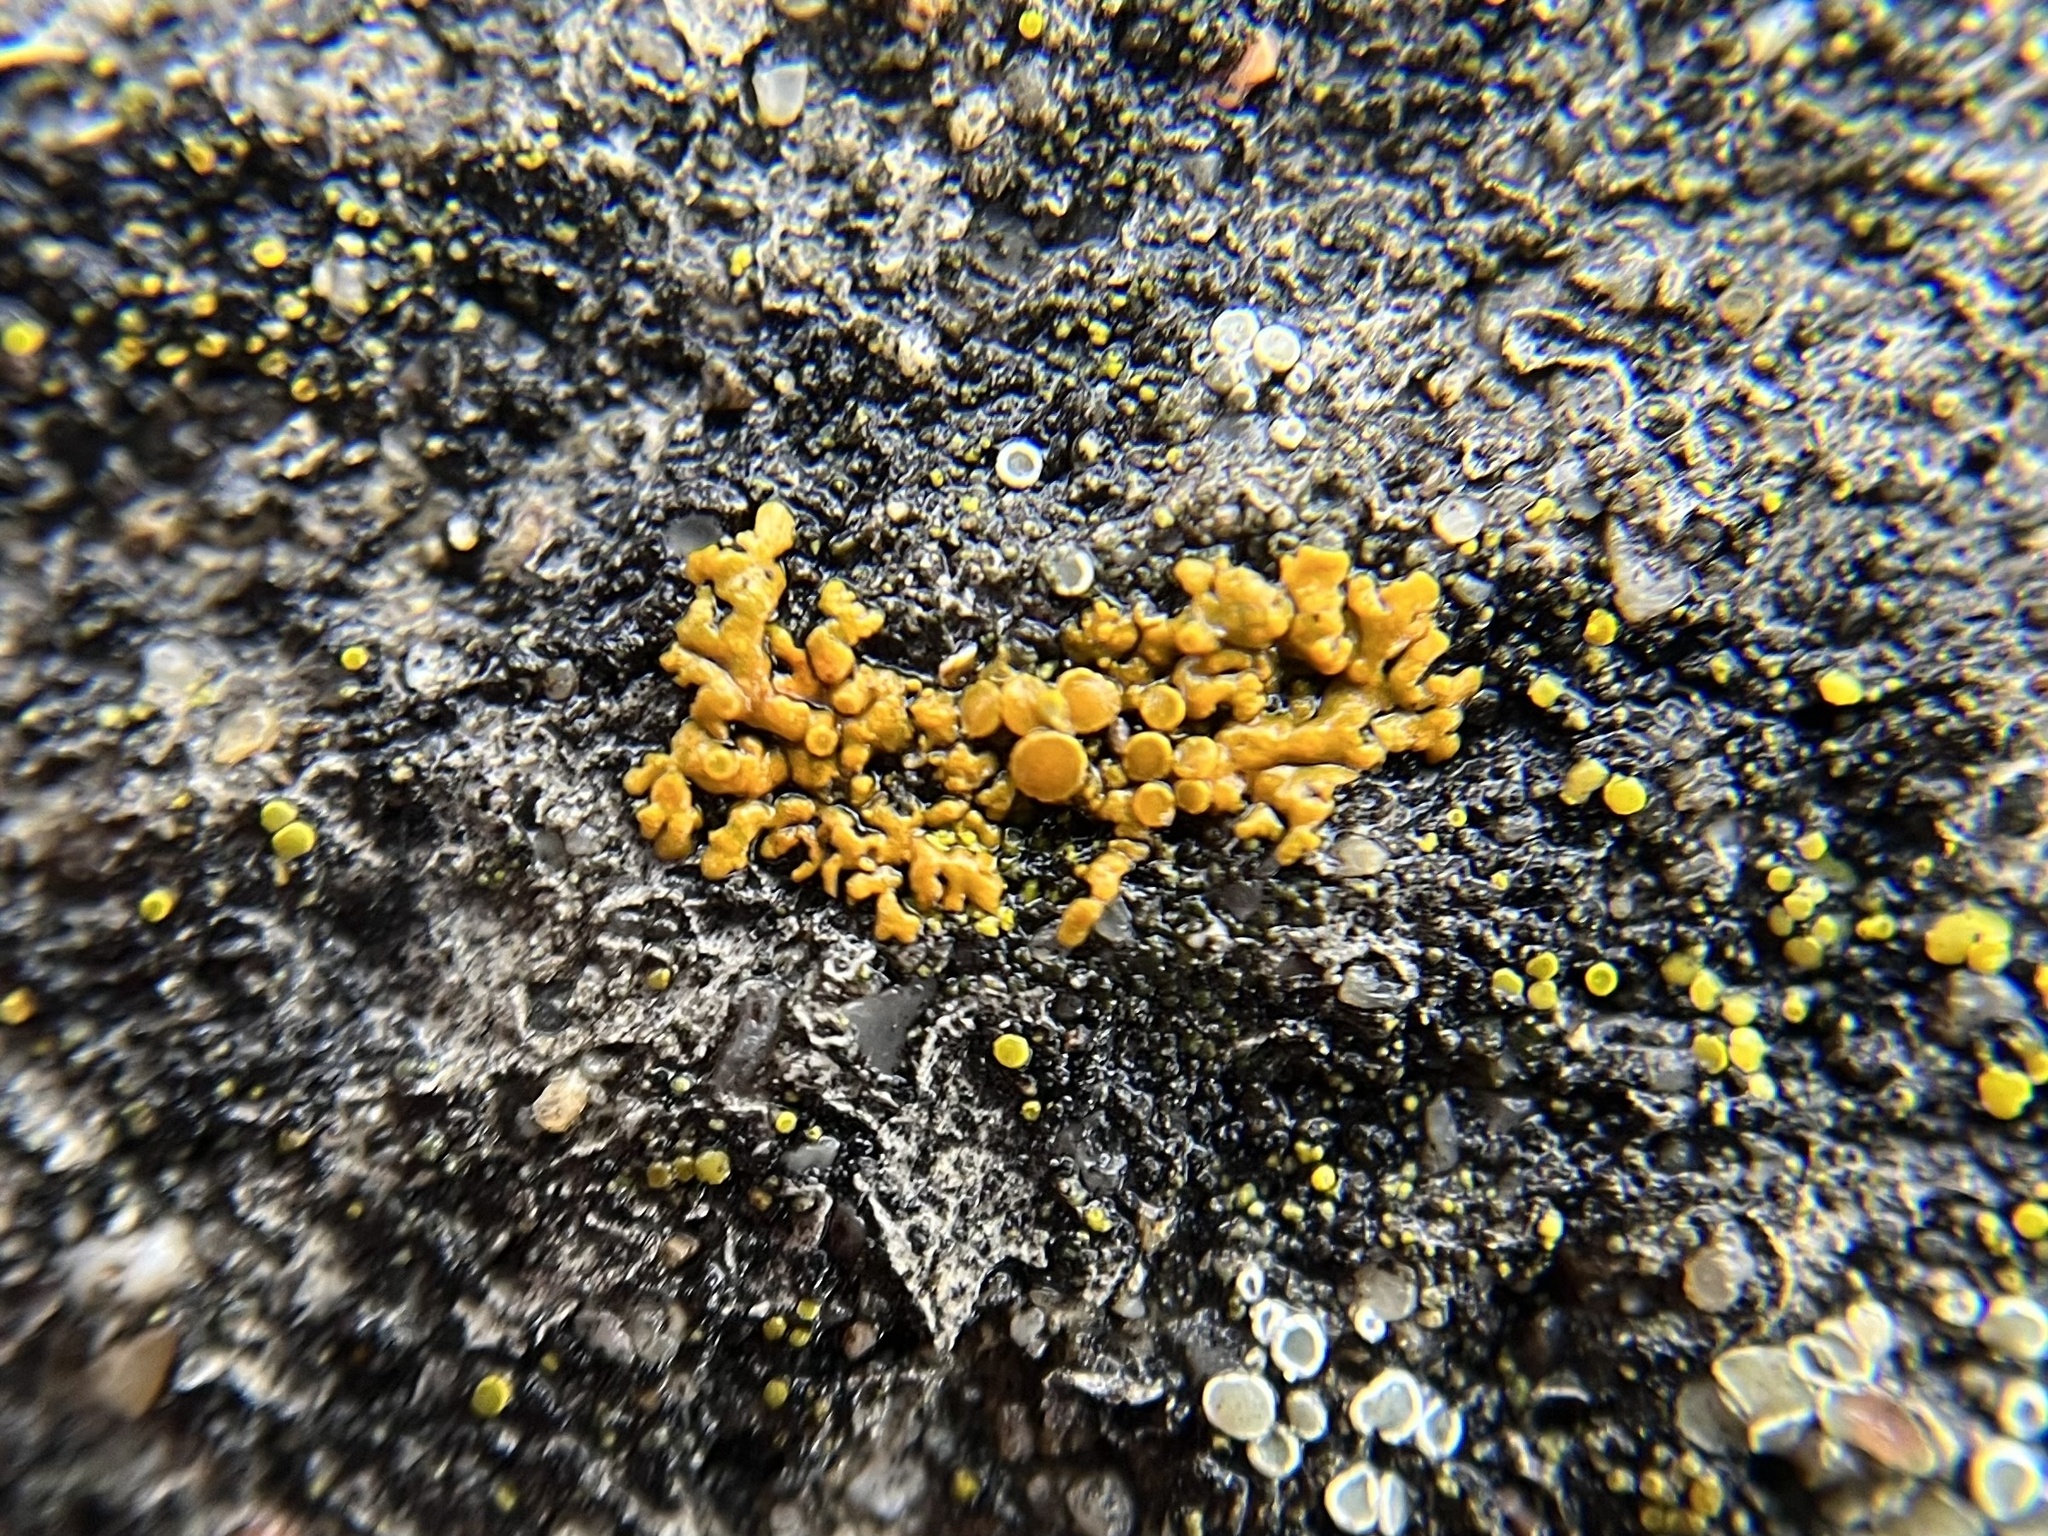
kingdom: Fungi
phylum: Ascomycota
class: Lecanoromycetes
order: Teloschistales
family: Teloschistaceae
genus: Xanthoria
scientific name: Xanthoria elegans
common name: Elegant sunburst lichen
